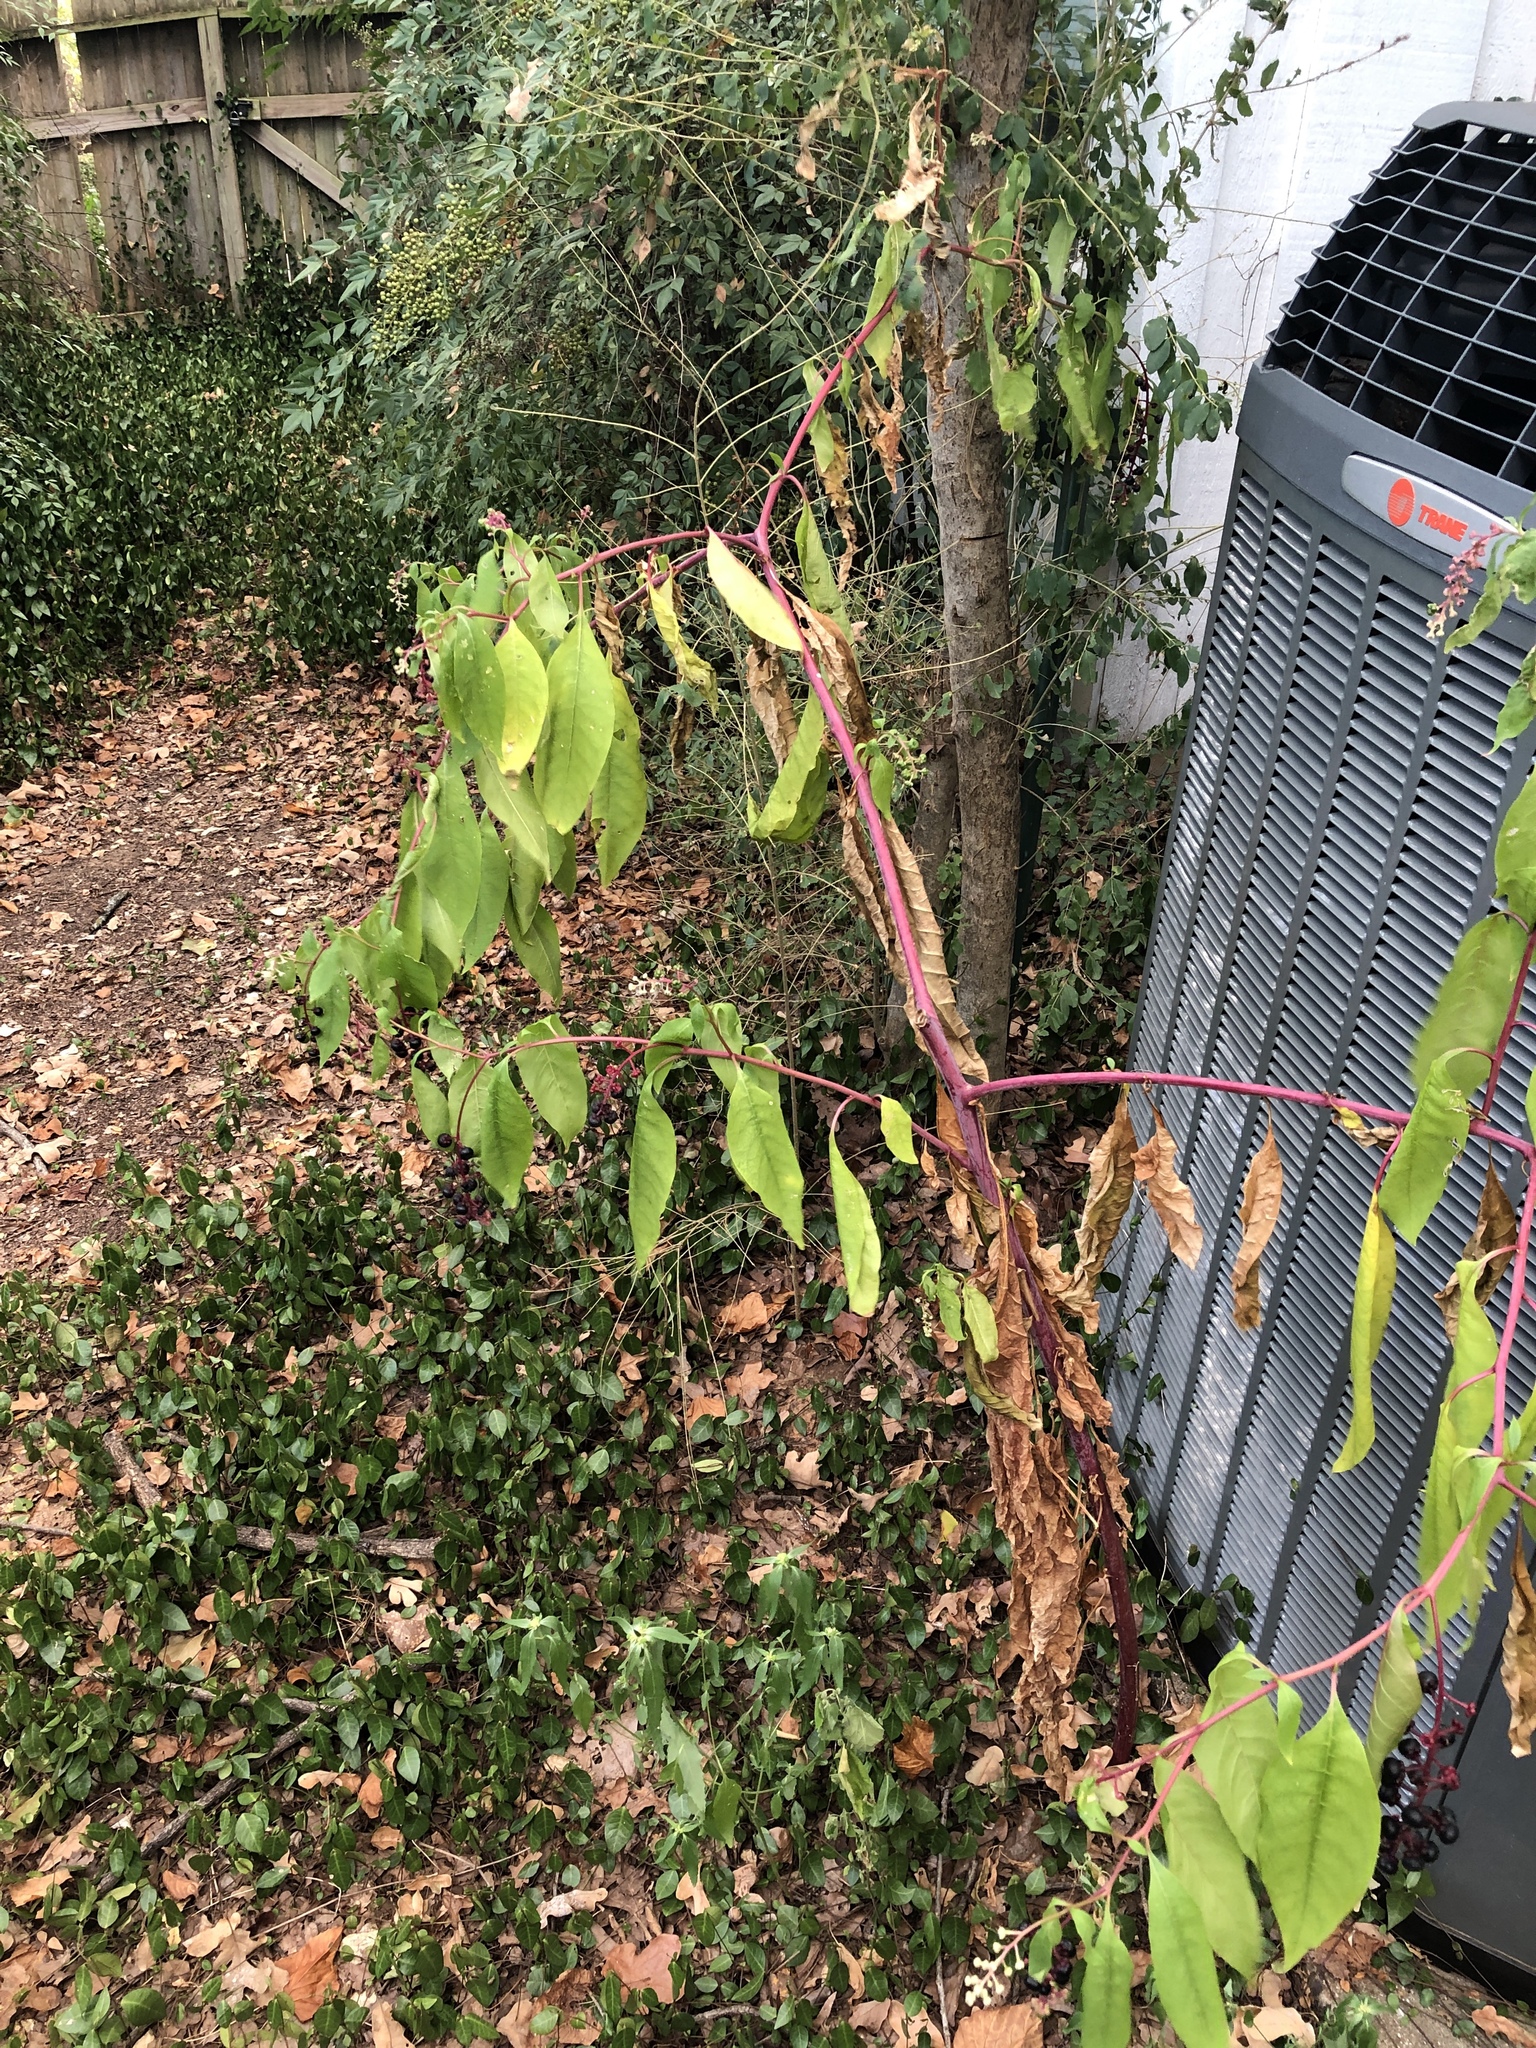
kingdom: Plantae
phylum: Tracheophyta
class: Magnoliopsida
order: Caryophyllales
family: Phytolaccaceae
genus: Phytolacca
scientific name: Phytolacca americana
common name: American pokeweed
